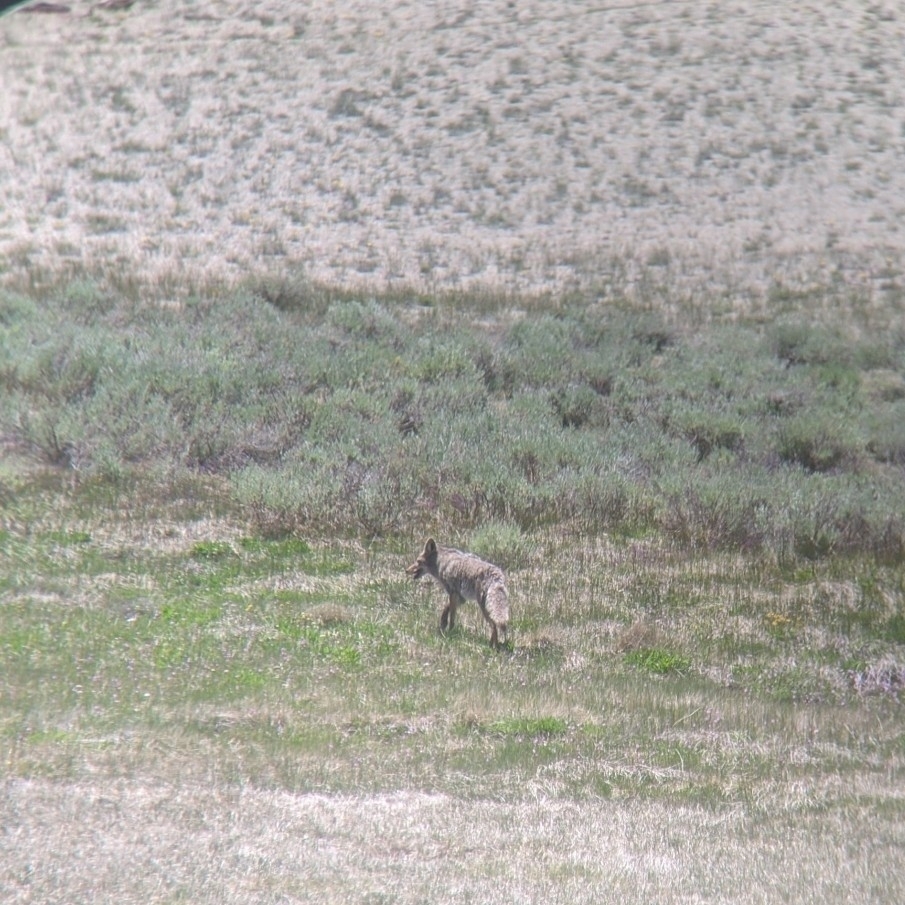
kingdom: Animalia
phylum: Chordata
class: Mammalia
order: Carnivora
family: Canidae
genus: Canis
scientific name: Canis latrans
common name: Coyote
